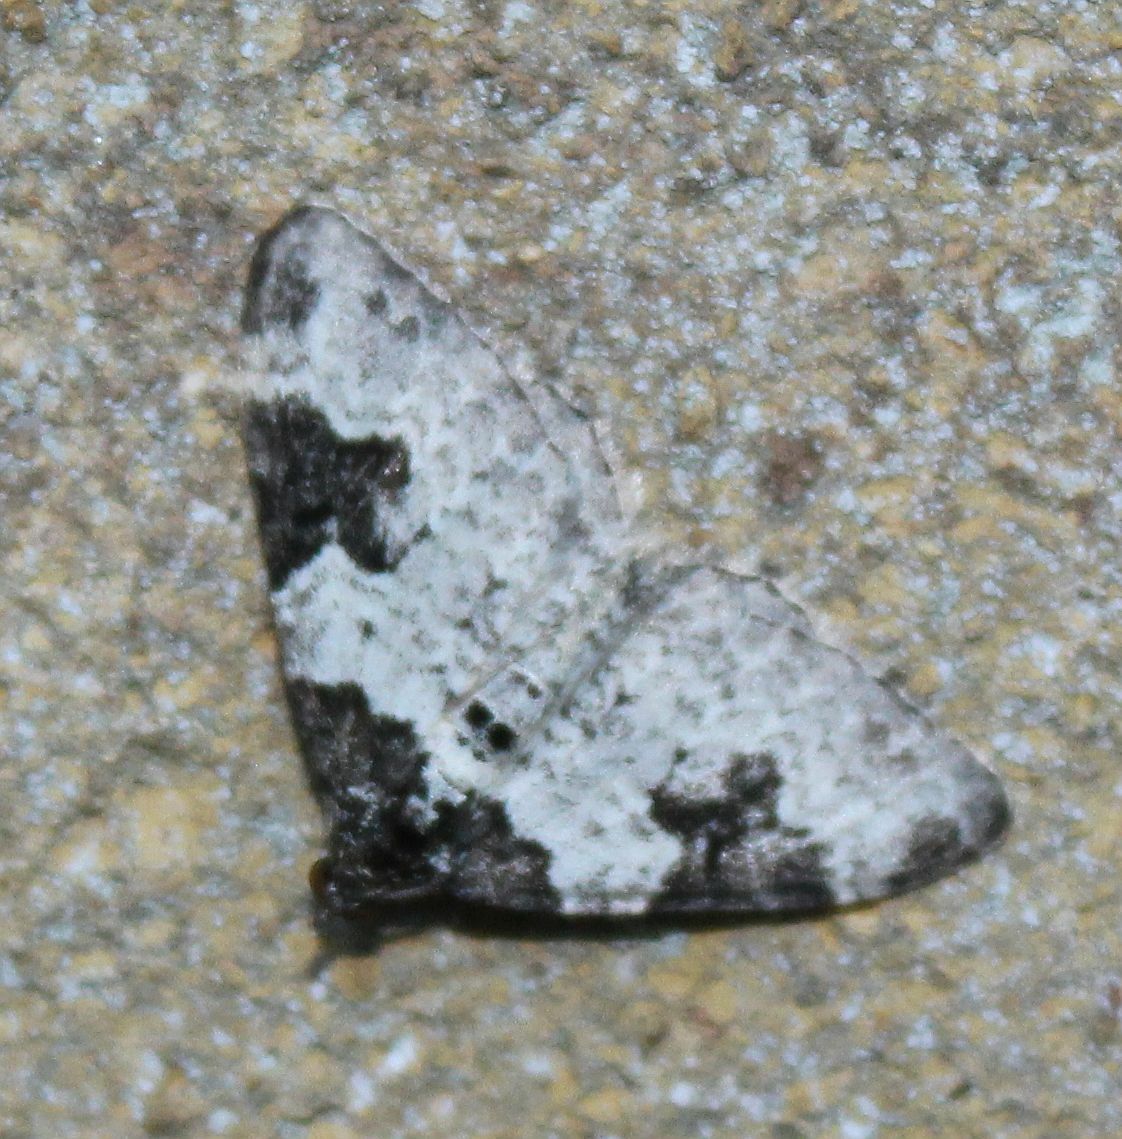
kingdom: Animalia
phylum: Arthropoda
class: Insecta
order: Lepidoptera
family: Geometridae
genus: Xanthorhoe
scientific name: Xanthorhoe fluctuata
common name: Garden carpet
